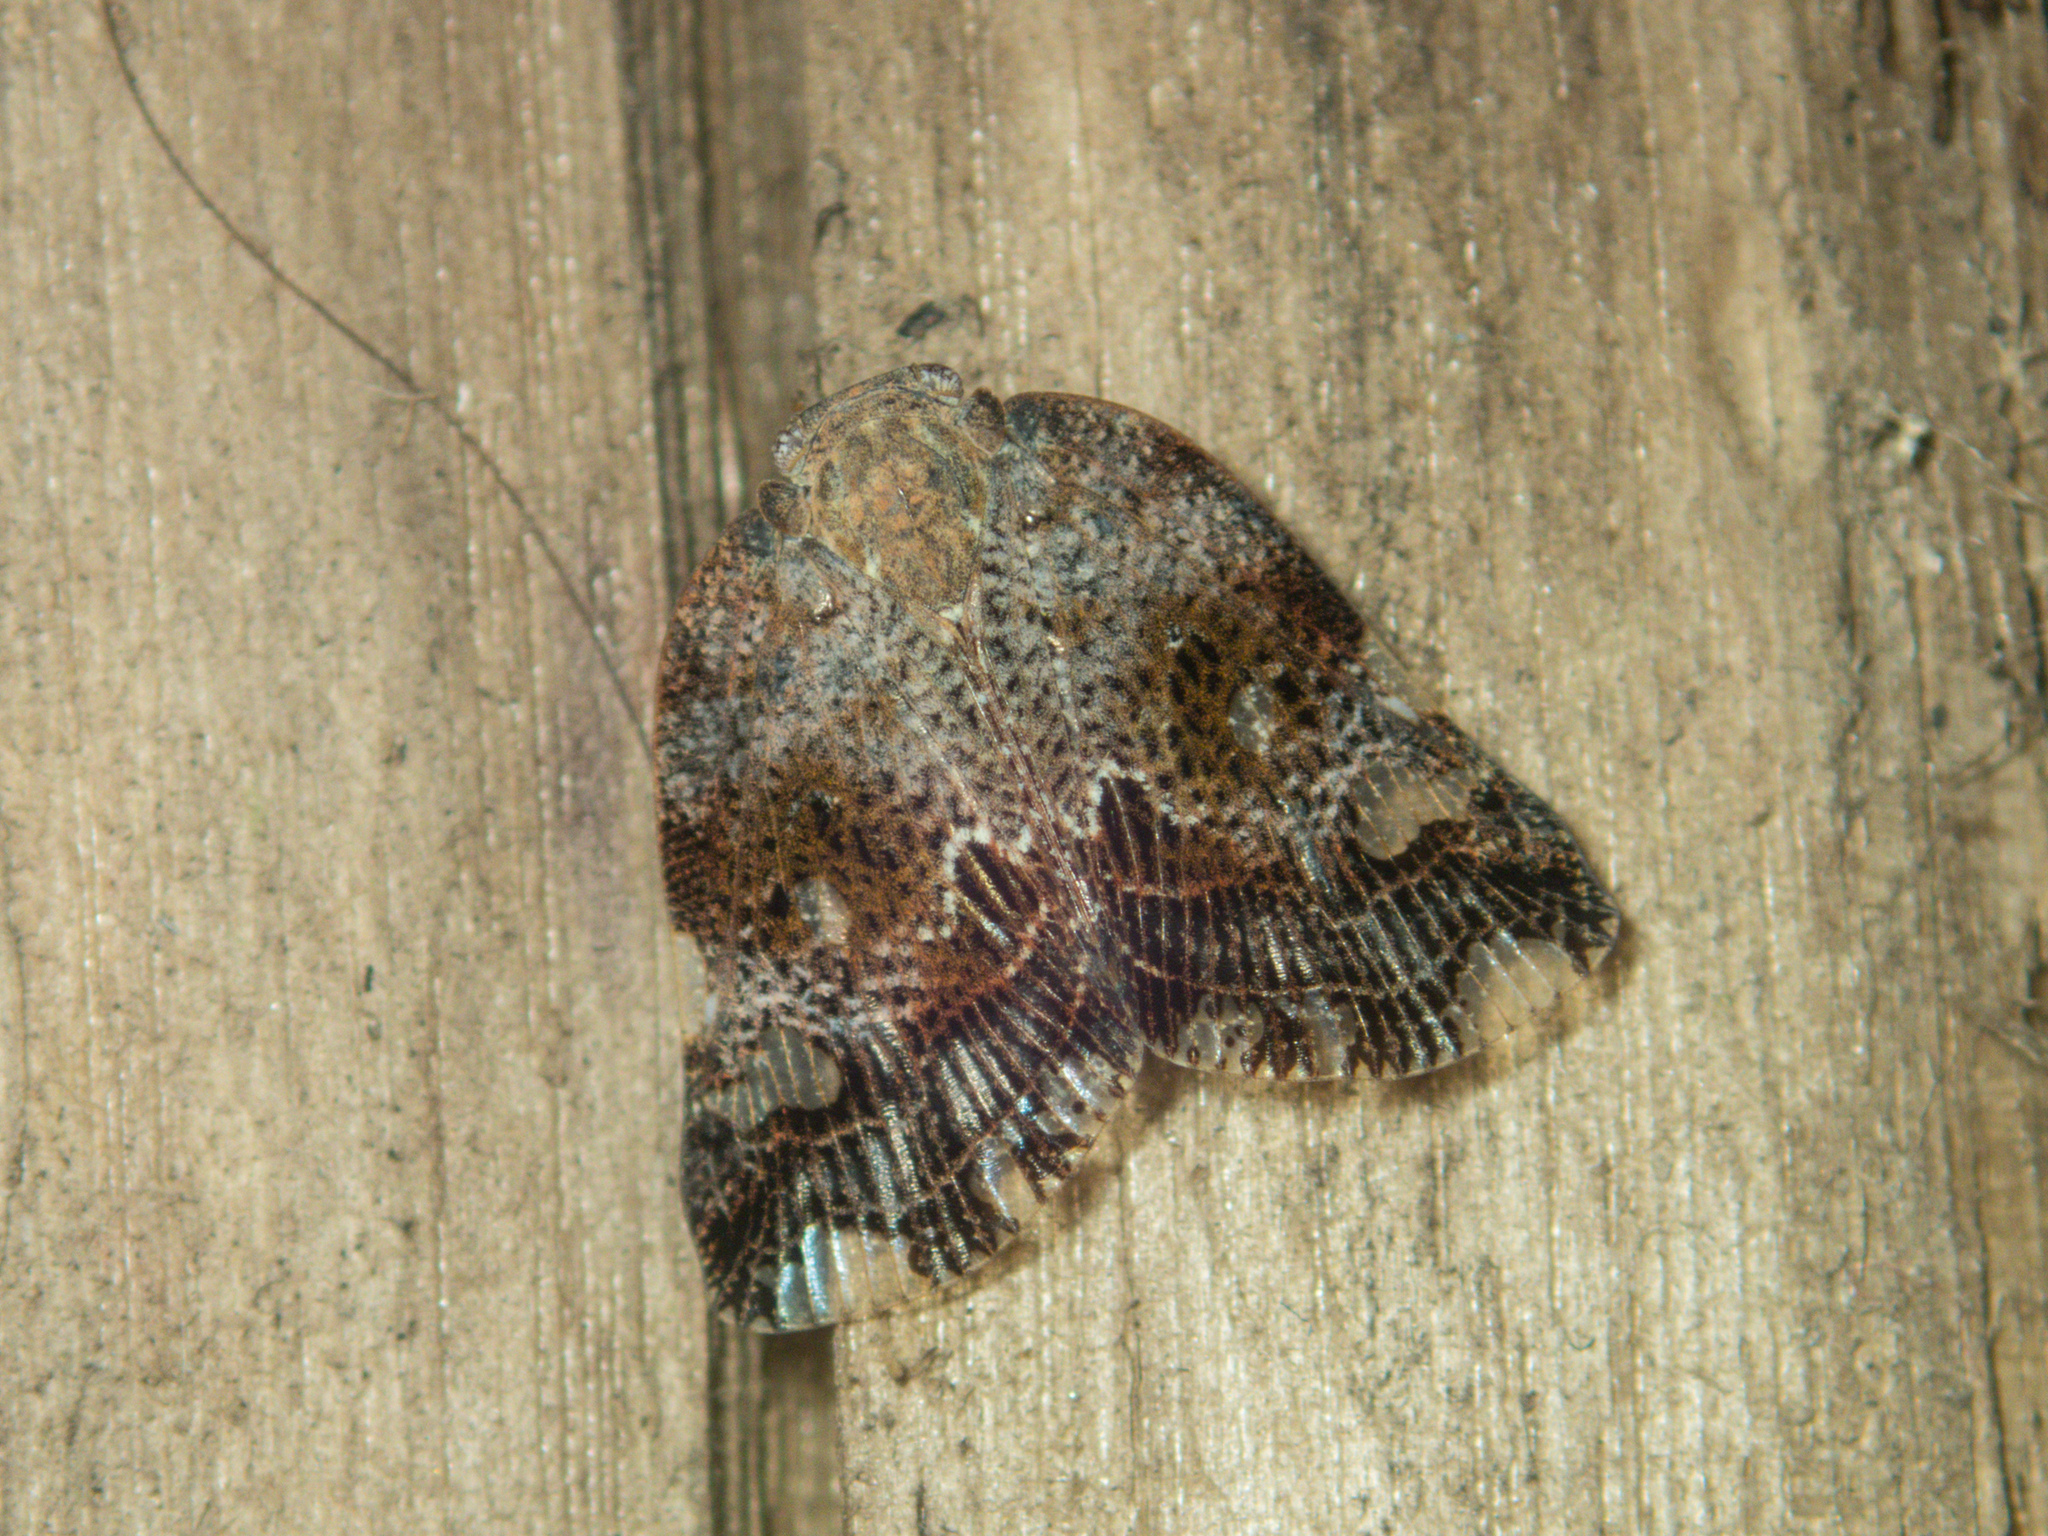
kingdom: Animalia
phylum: Arthropoda
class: Insecta
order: Hemiptera
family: Ricaniidae
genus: Ricania
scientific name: Ricania speculum
